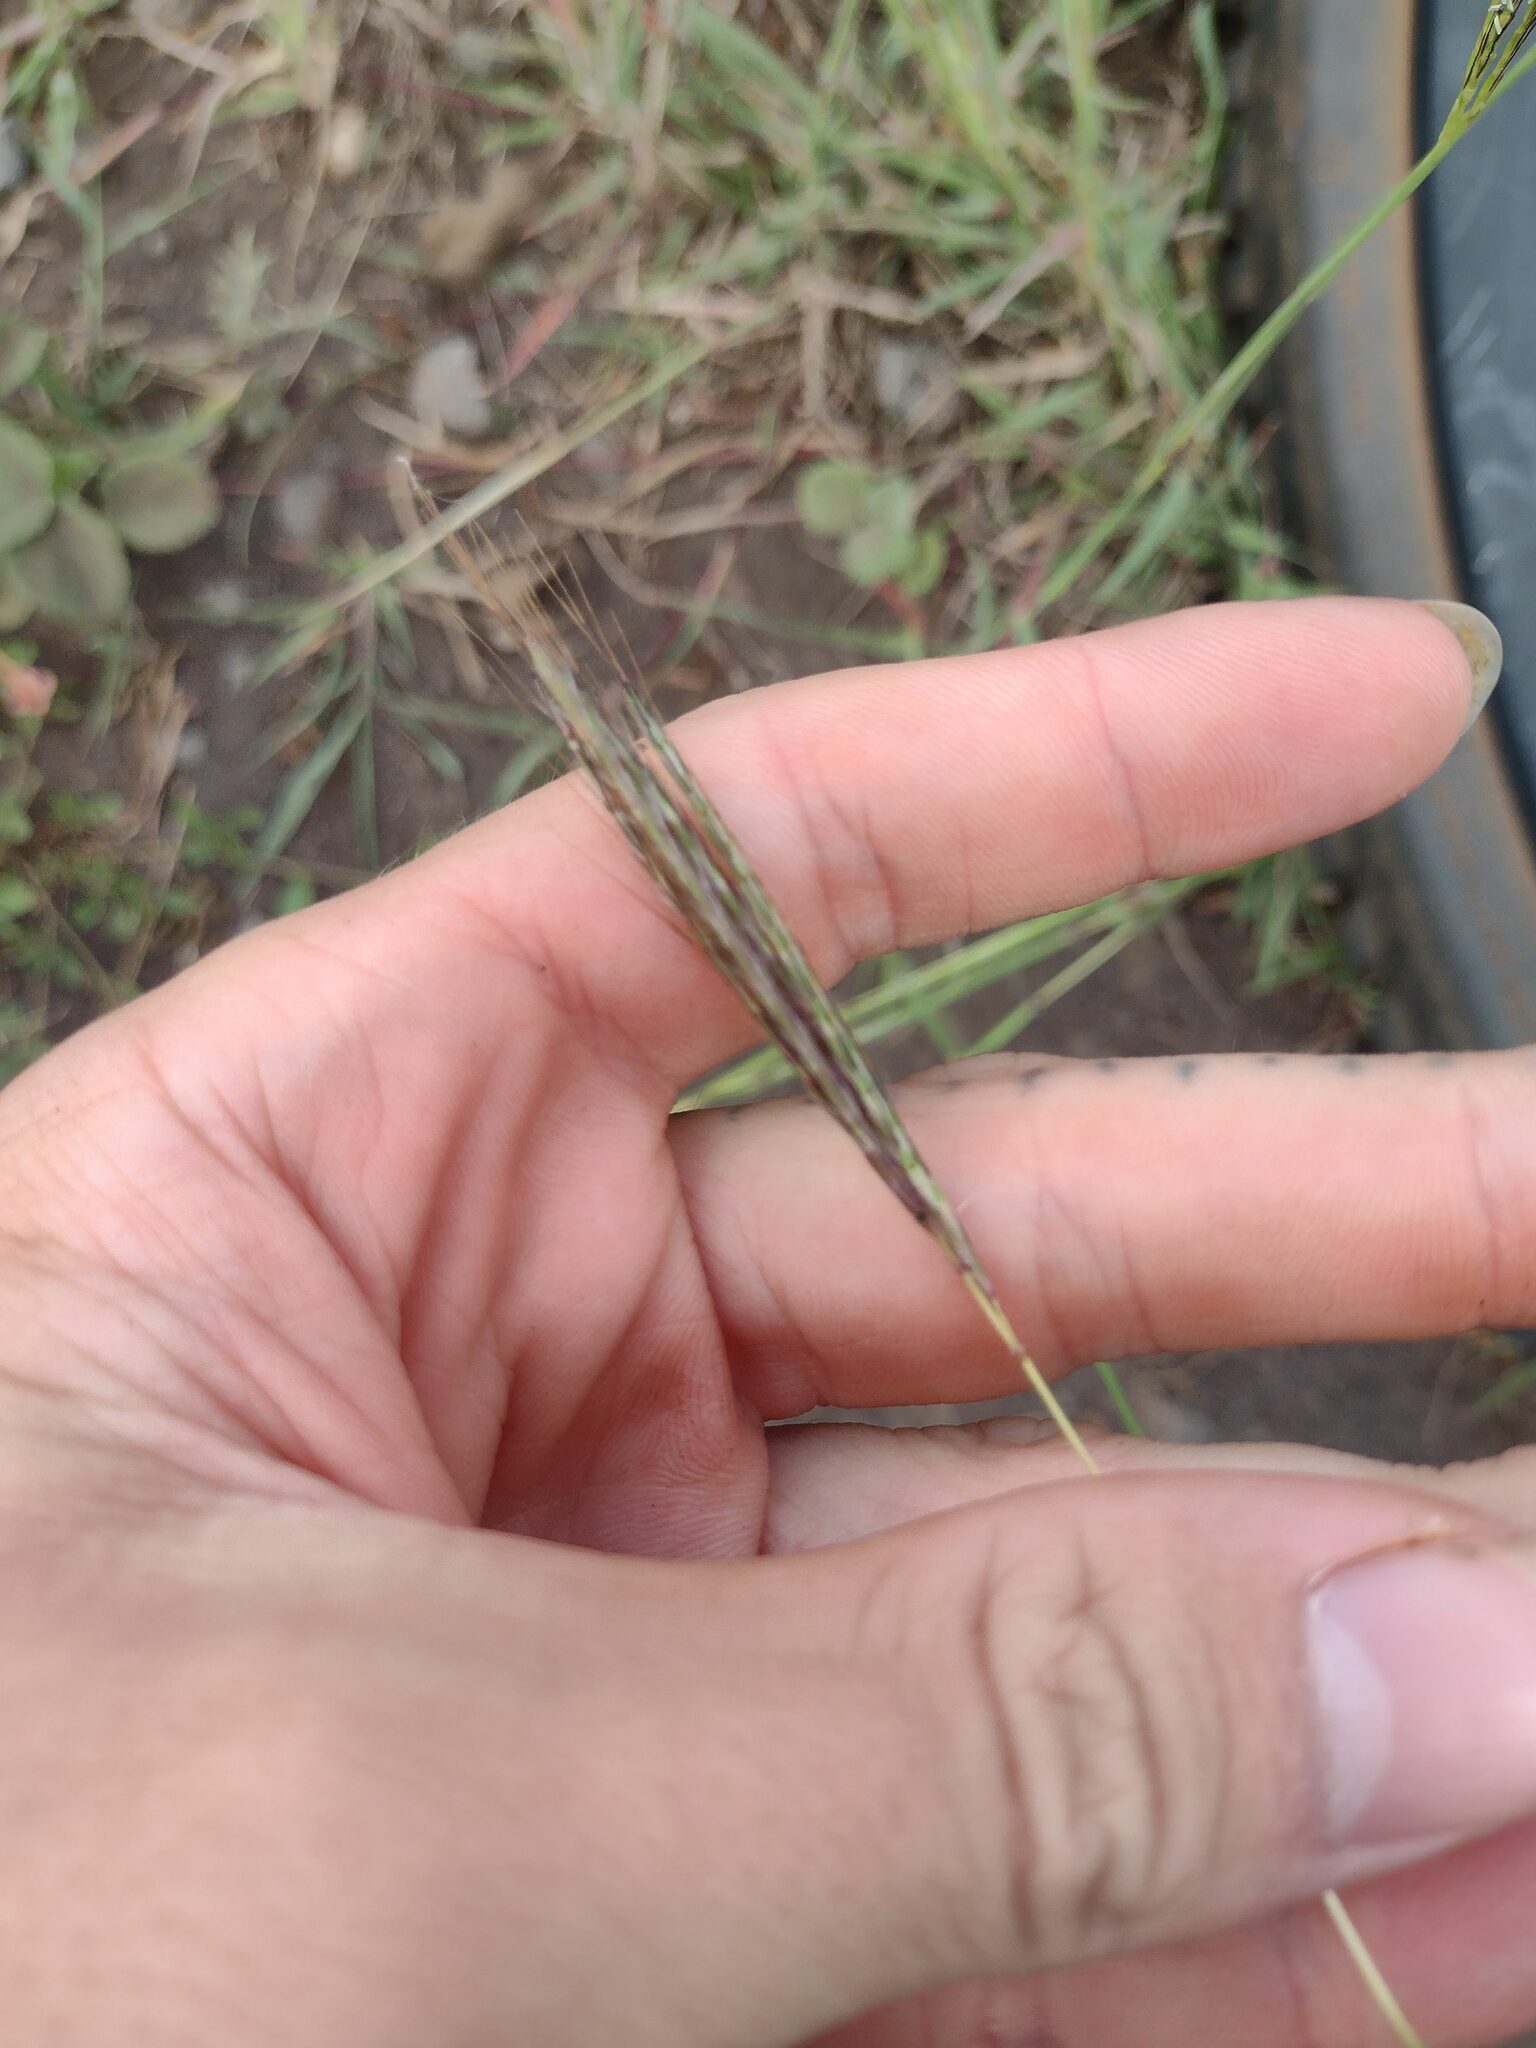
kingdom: Plantae
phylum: Tracheophyta
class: Liliopsida
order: Poales
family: Poaceae
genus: Bothriochloa
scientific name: Bothriochloa pertusa
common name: Pitted beardgrass
